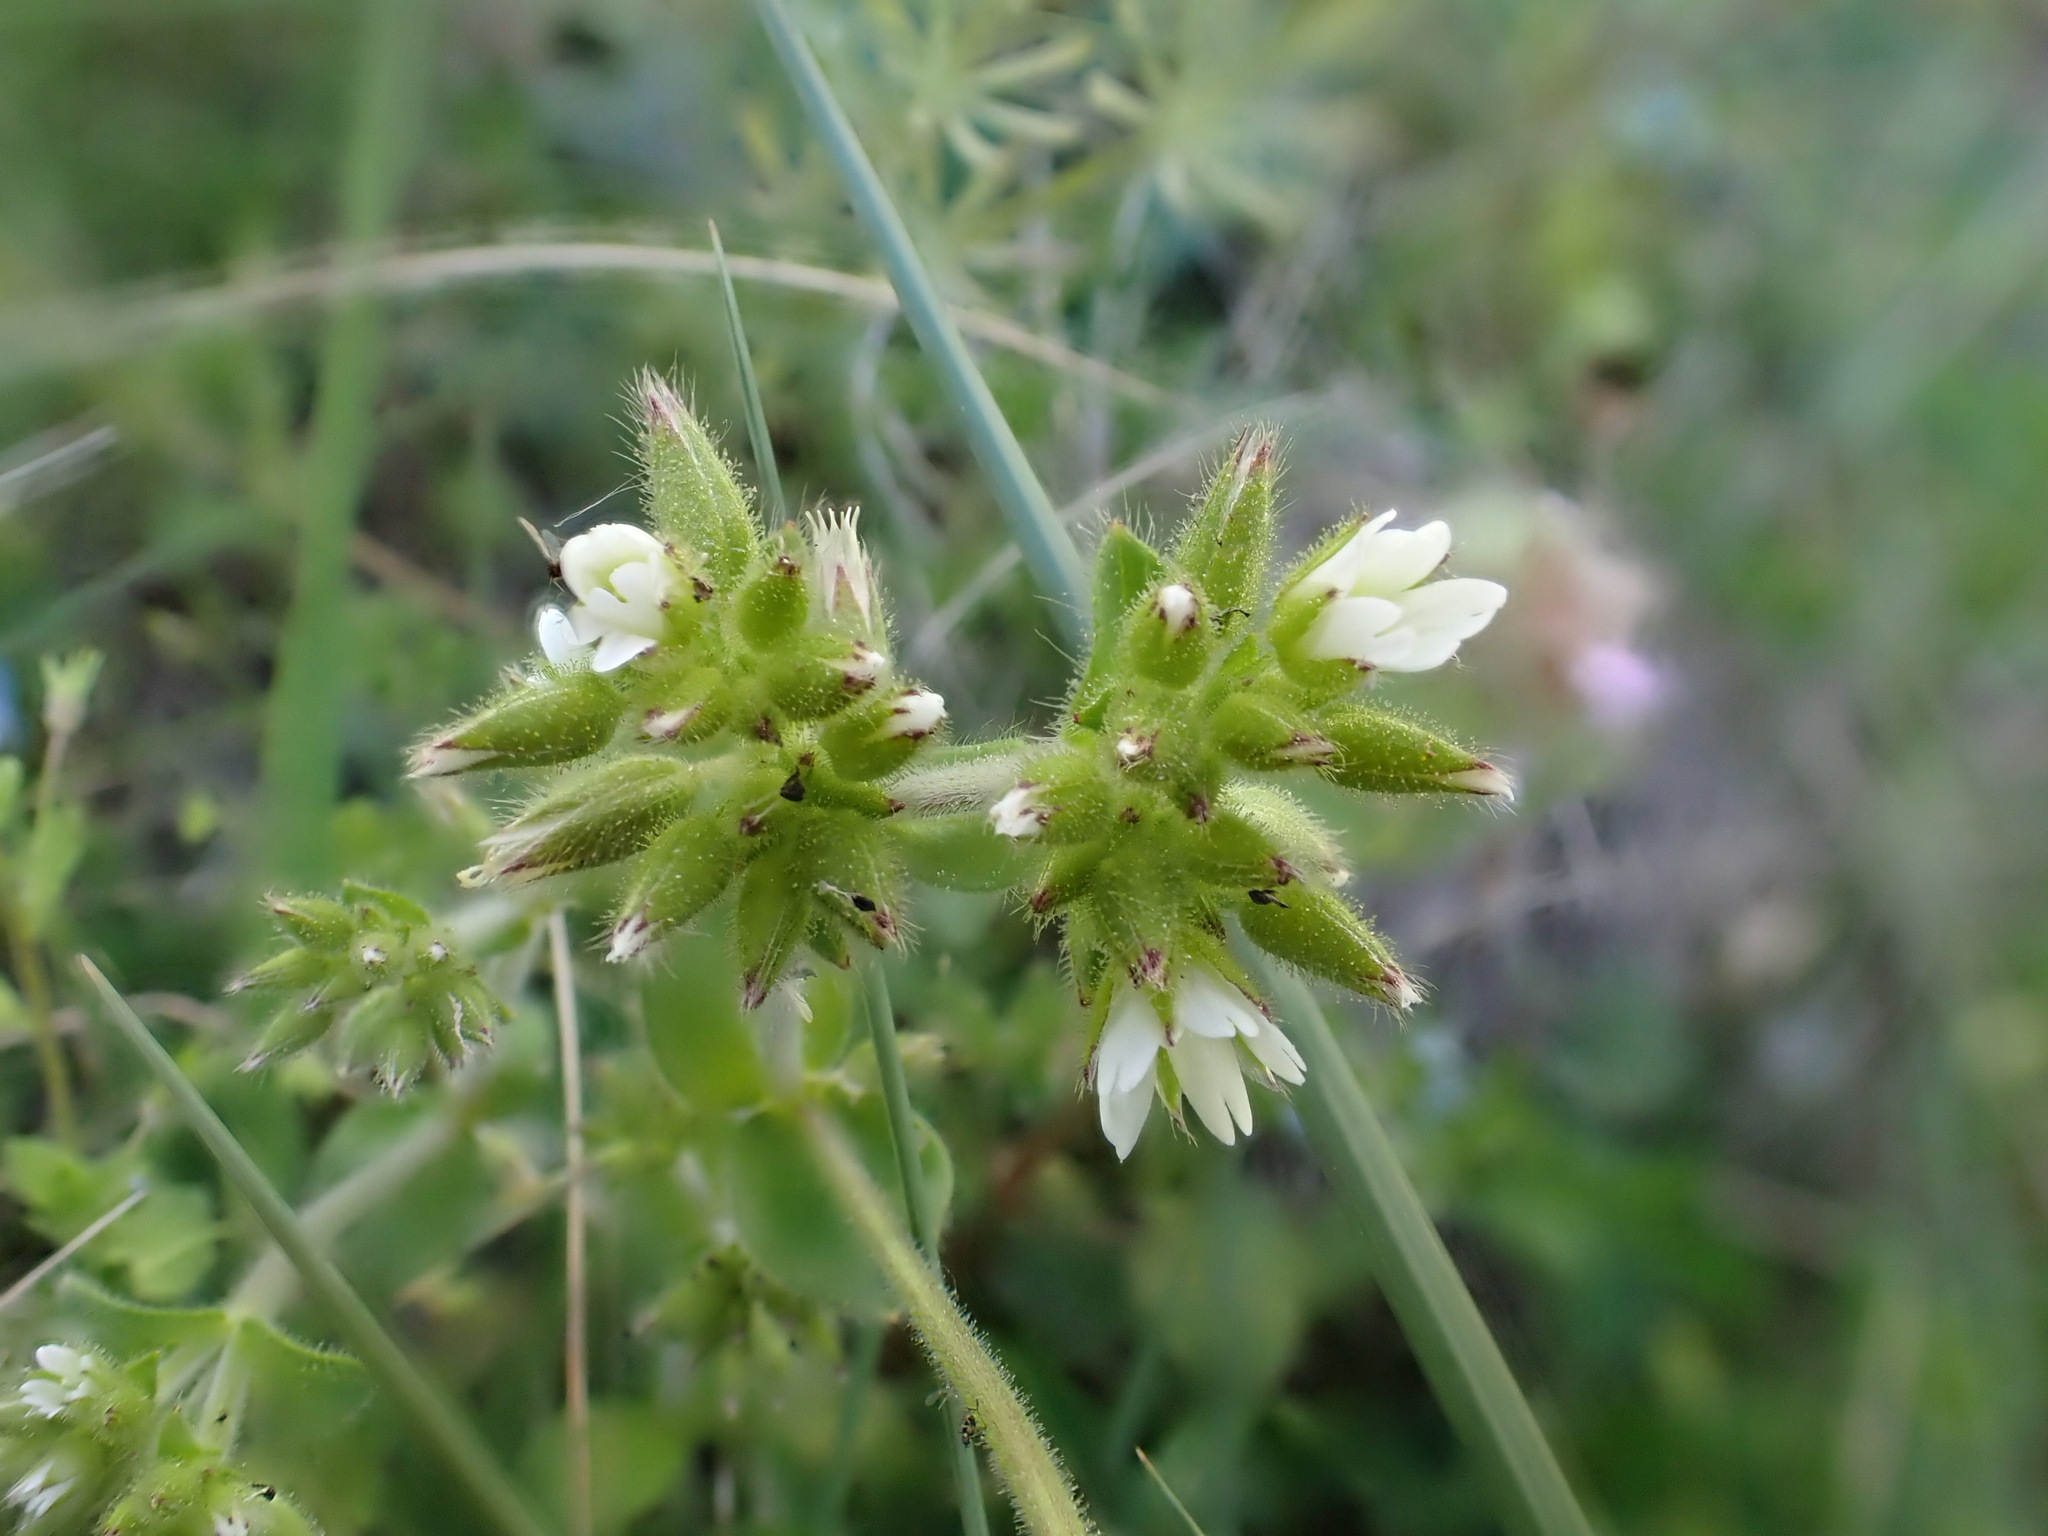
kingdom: Plantae
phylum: Tracheophyta
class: Magnoliopsida
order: Caryophyllales
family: Caryophyllaceae
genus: Cerastium
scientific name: Cerastium glomeratum
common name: Sticky chickweed
